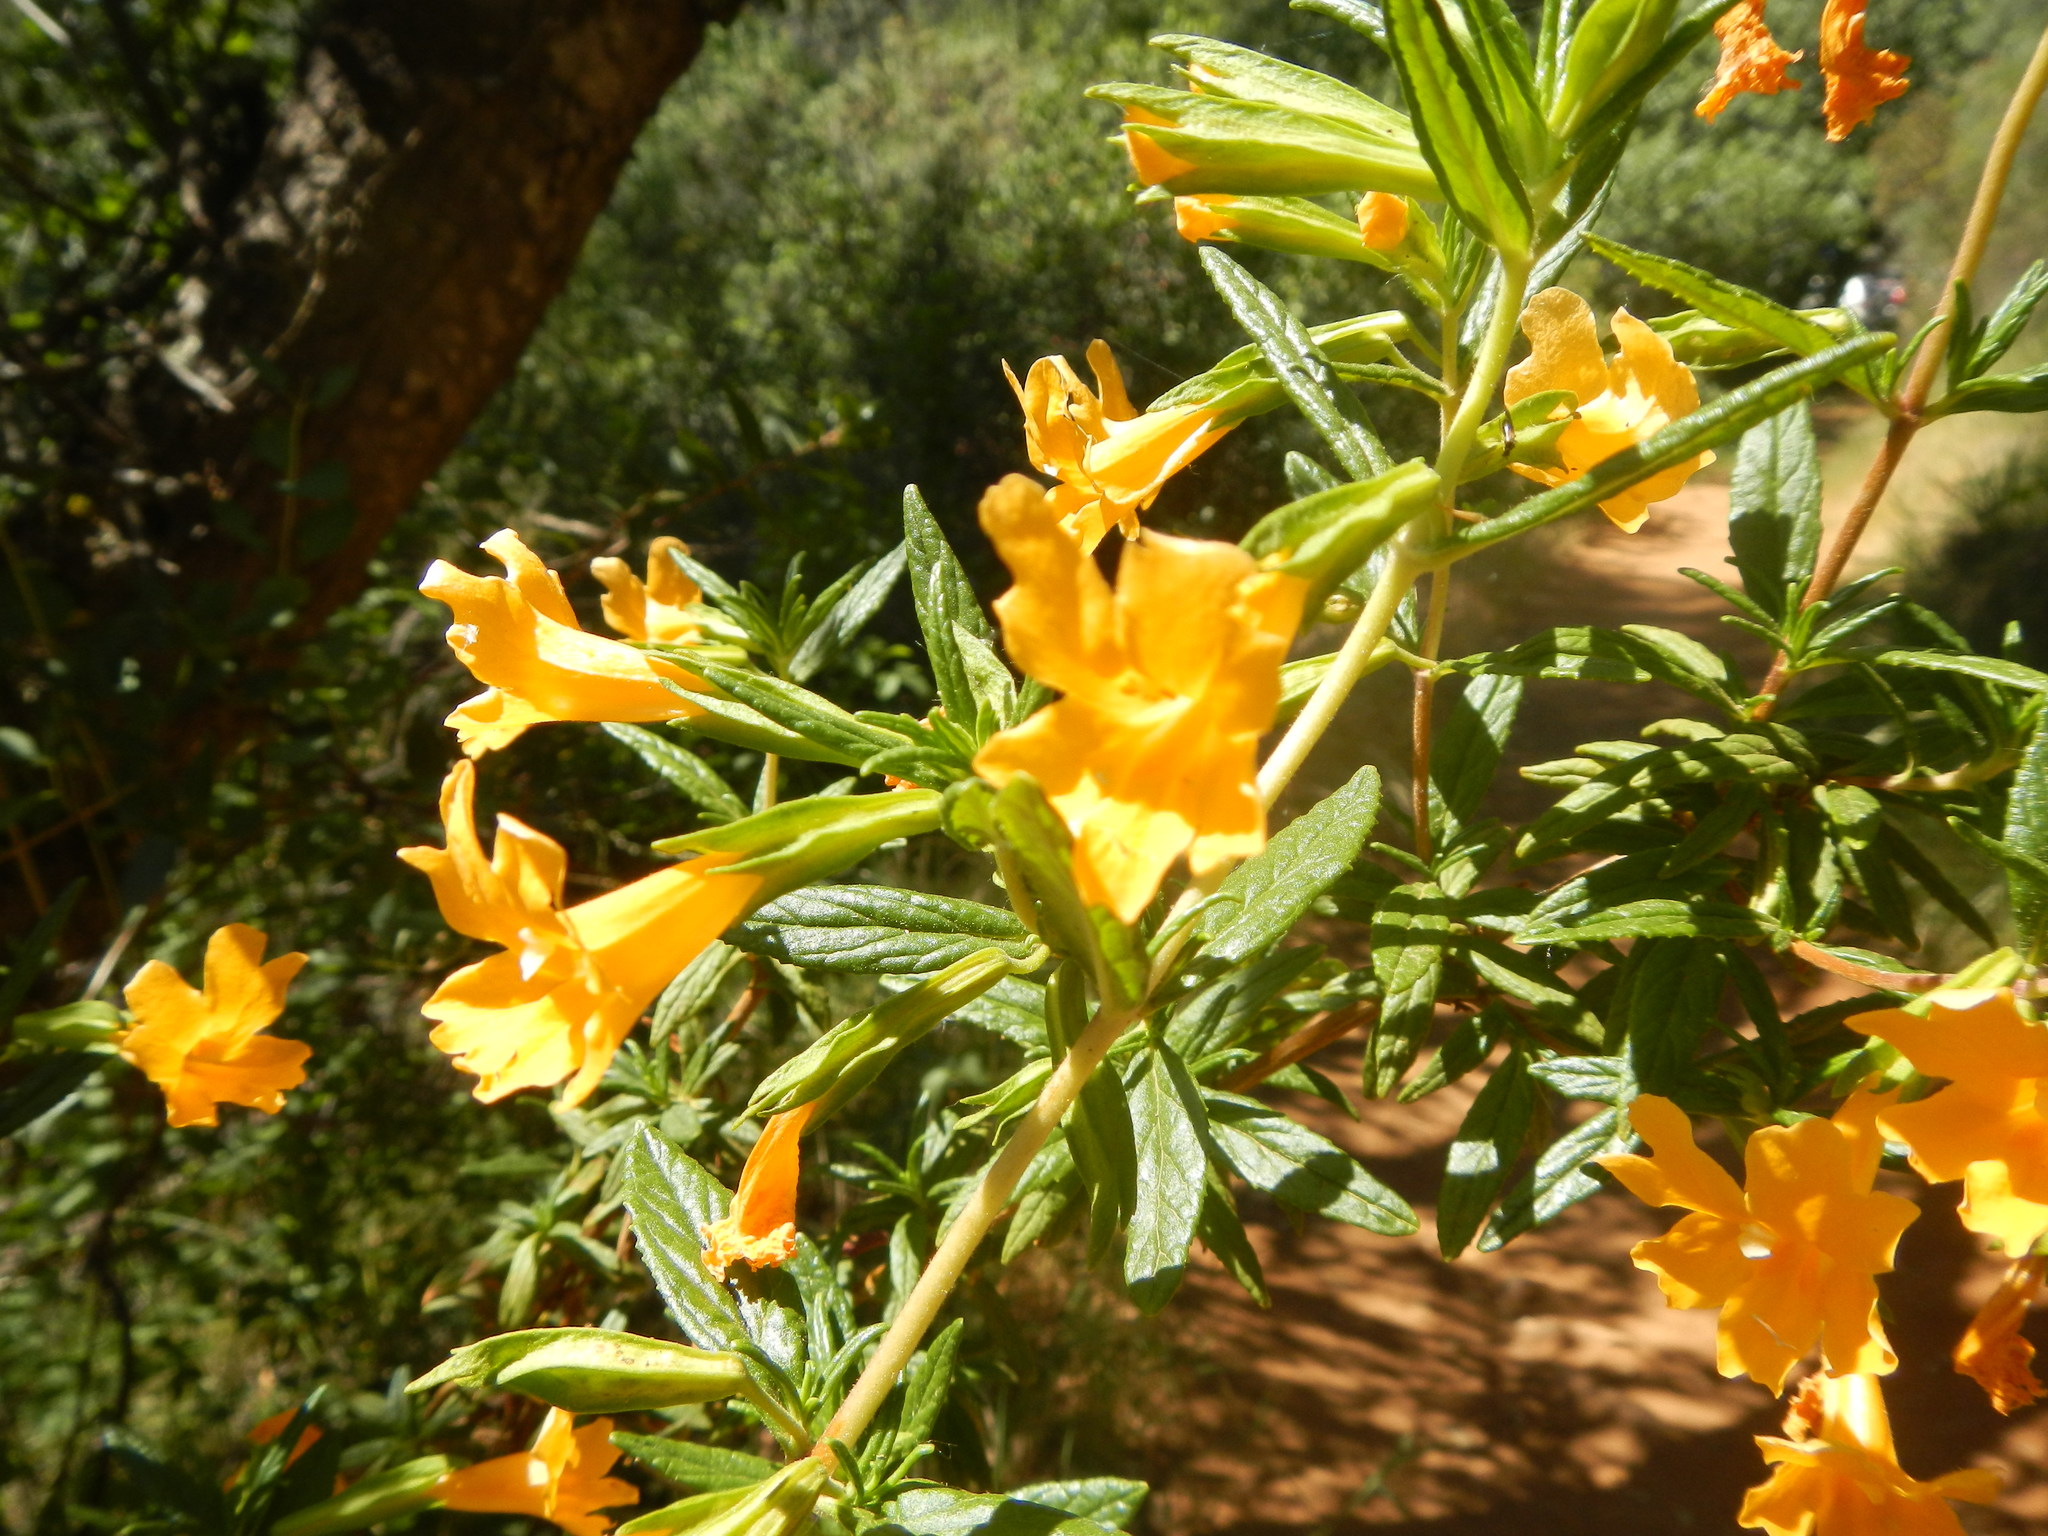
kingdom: Plantae
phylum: Tracheophyta
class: Magnoliopsida
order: Lamiales
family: Phrymaceae
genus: Diplacus
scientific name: Diplacus aurantiacus
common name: Bush monkey-flower
